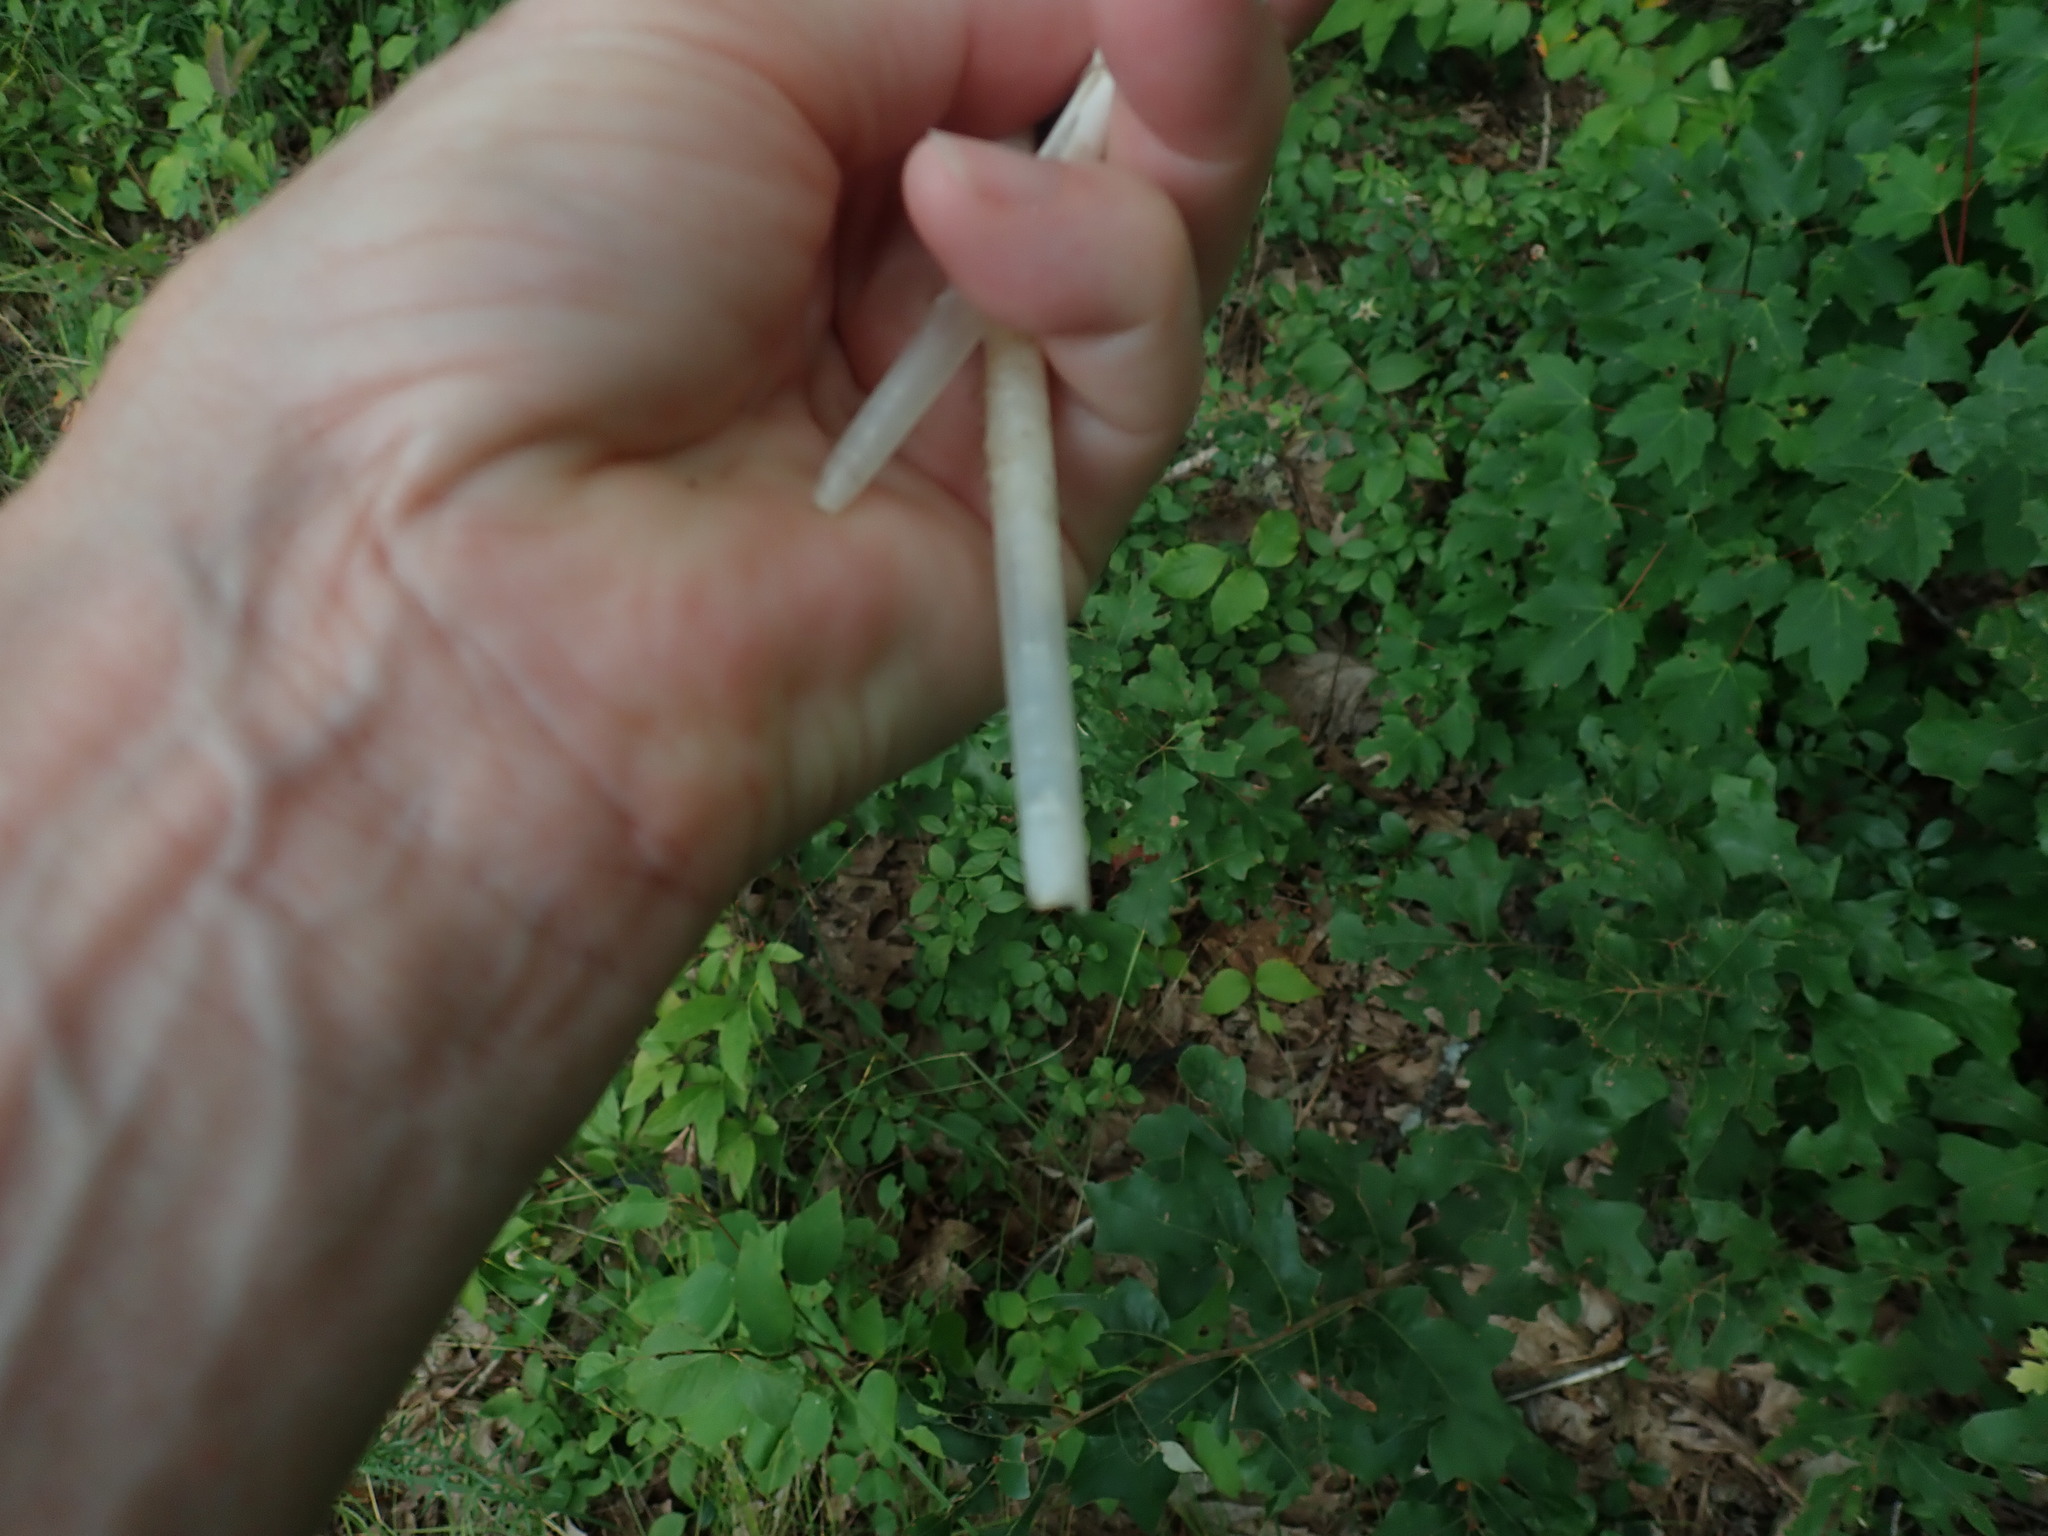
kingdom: Animalia
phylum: Chordata
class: Aves
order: Anseriformes
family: Anatidae
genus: Branta
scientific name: Branta canadensis
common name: Canada goose
